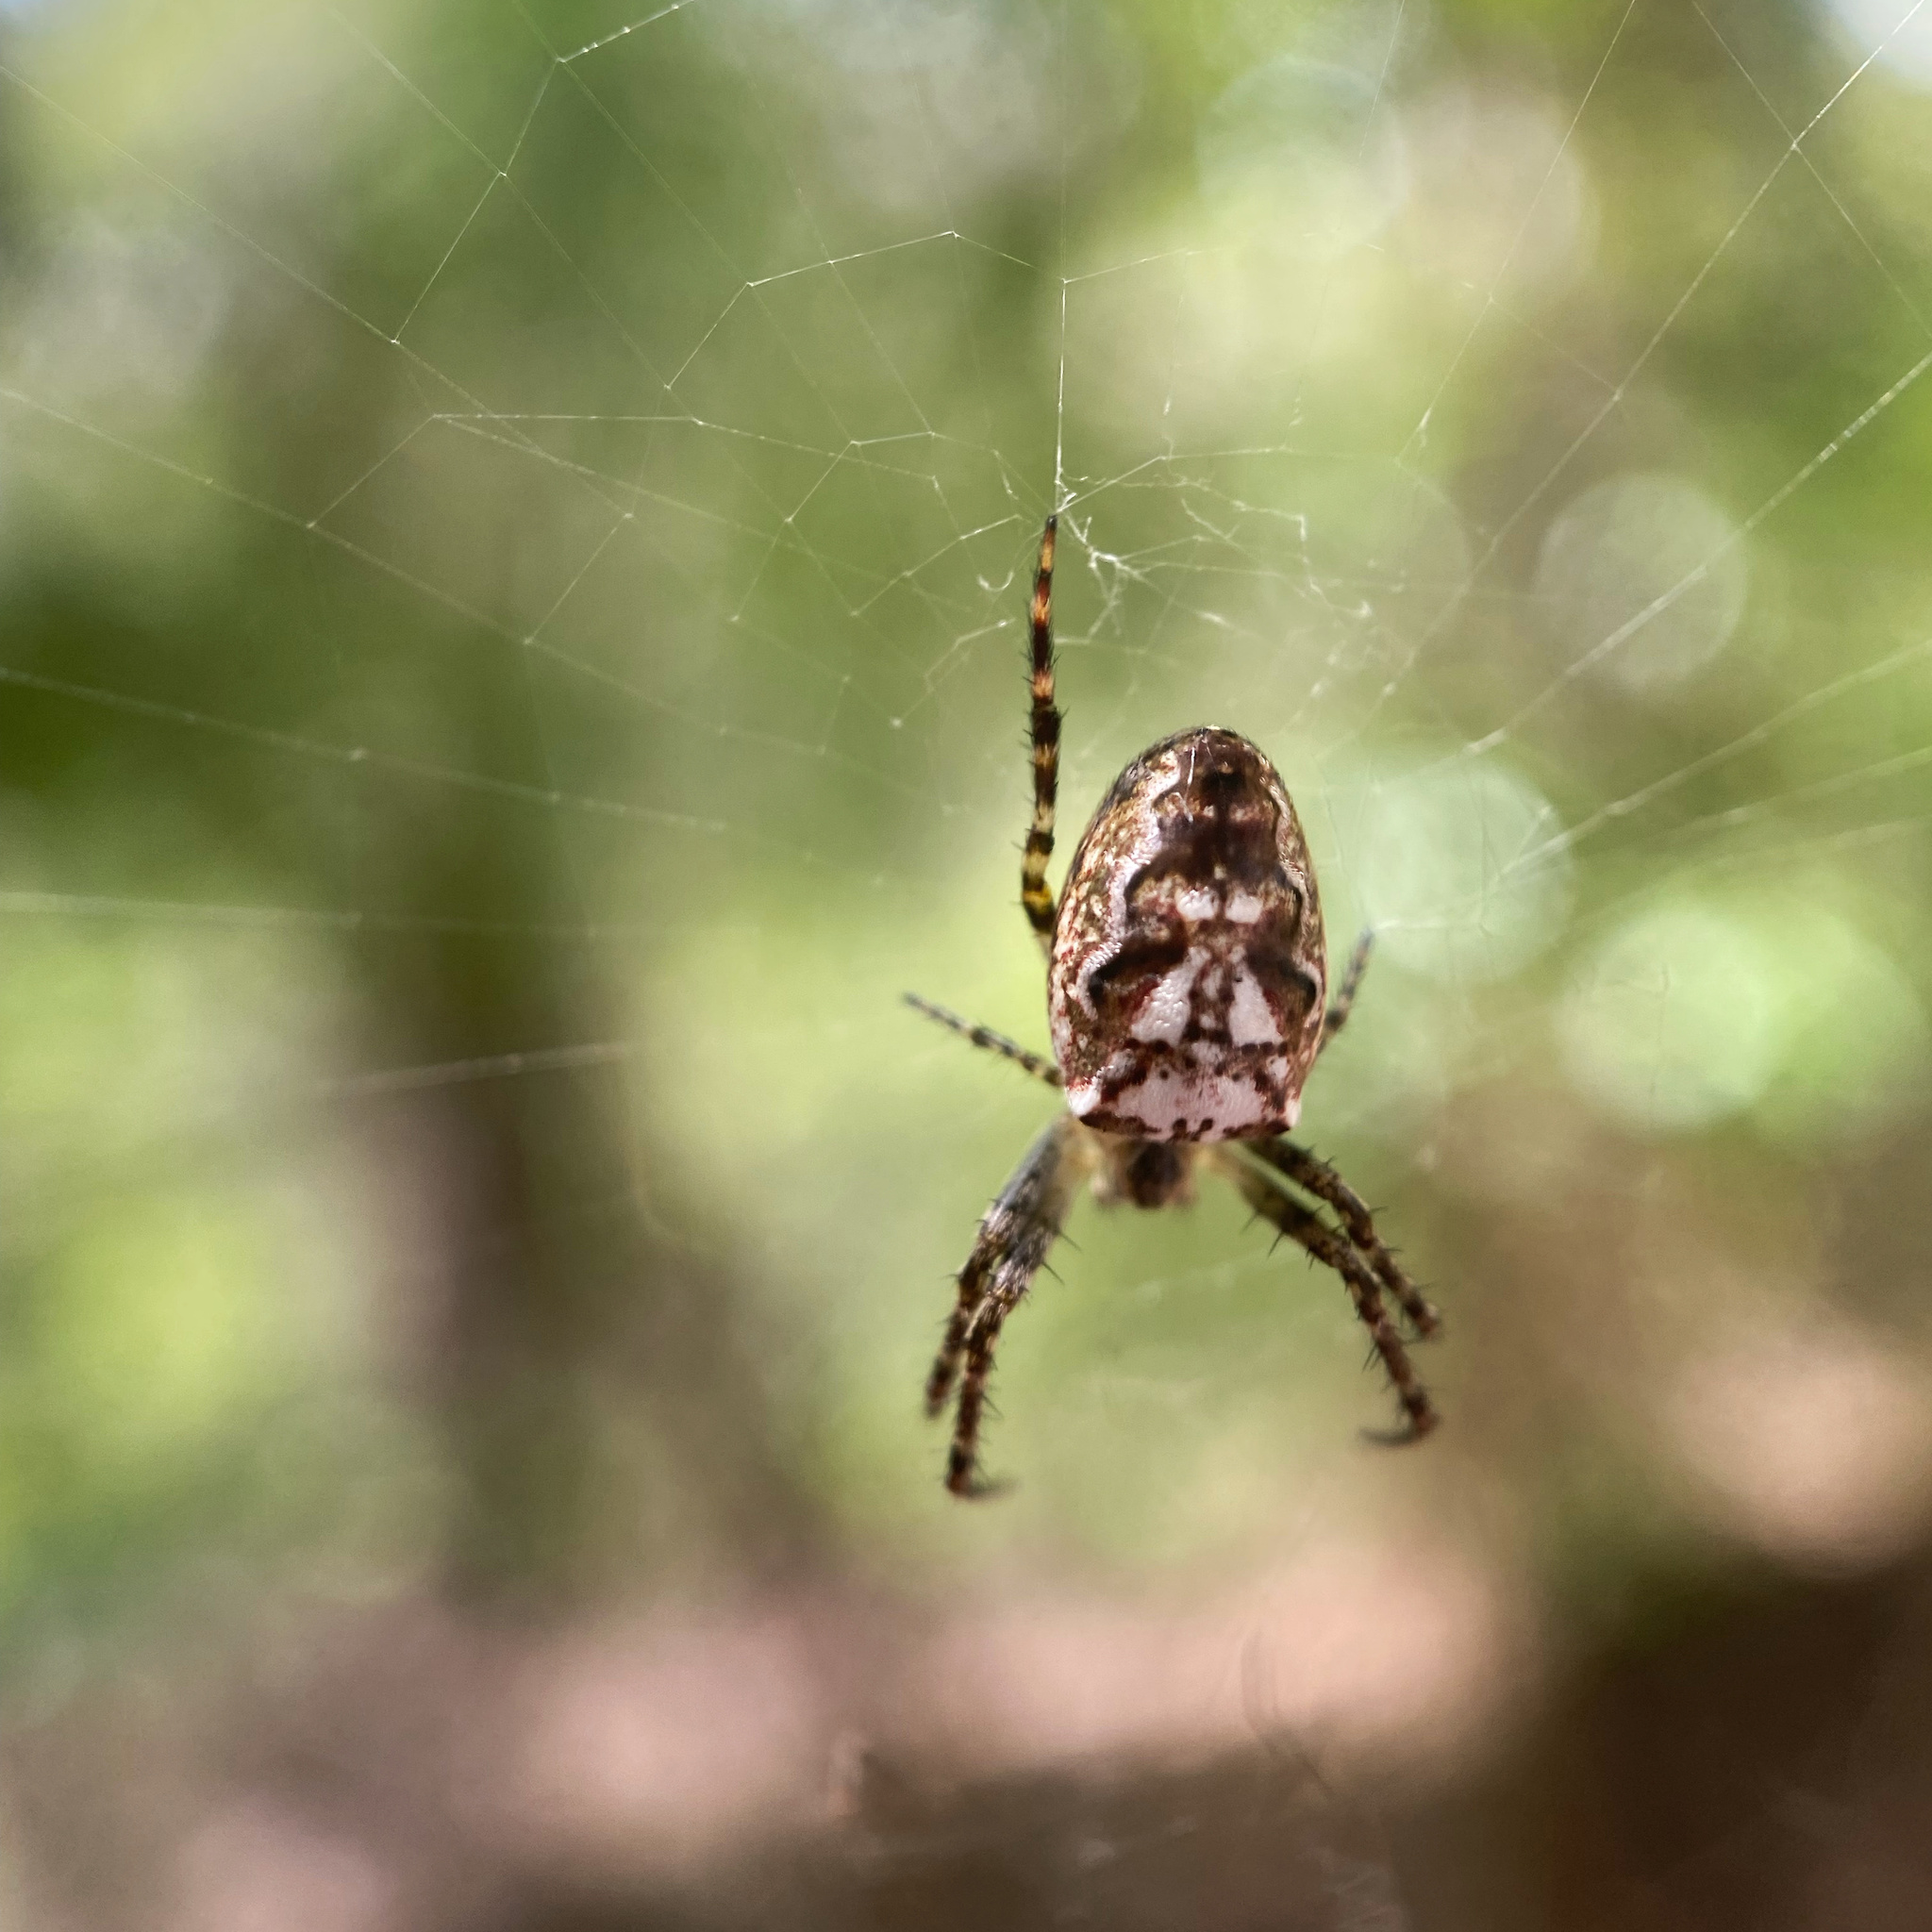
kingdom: Animalia
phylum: Arthropoda
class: Arachnida
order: Araneae
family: Araneidae
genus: Plebs
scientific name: Plebs eburnus
